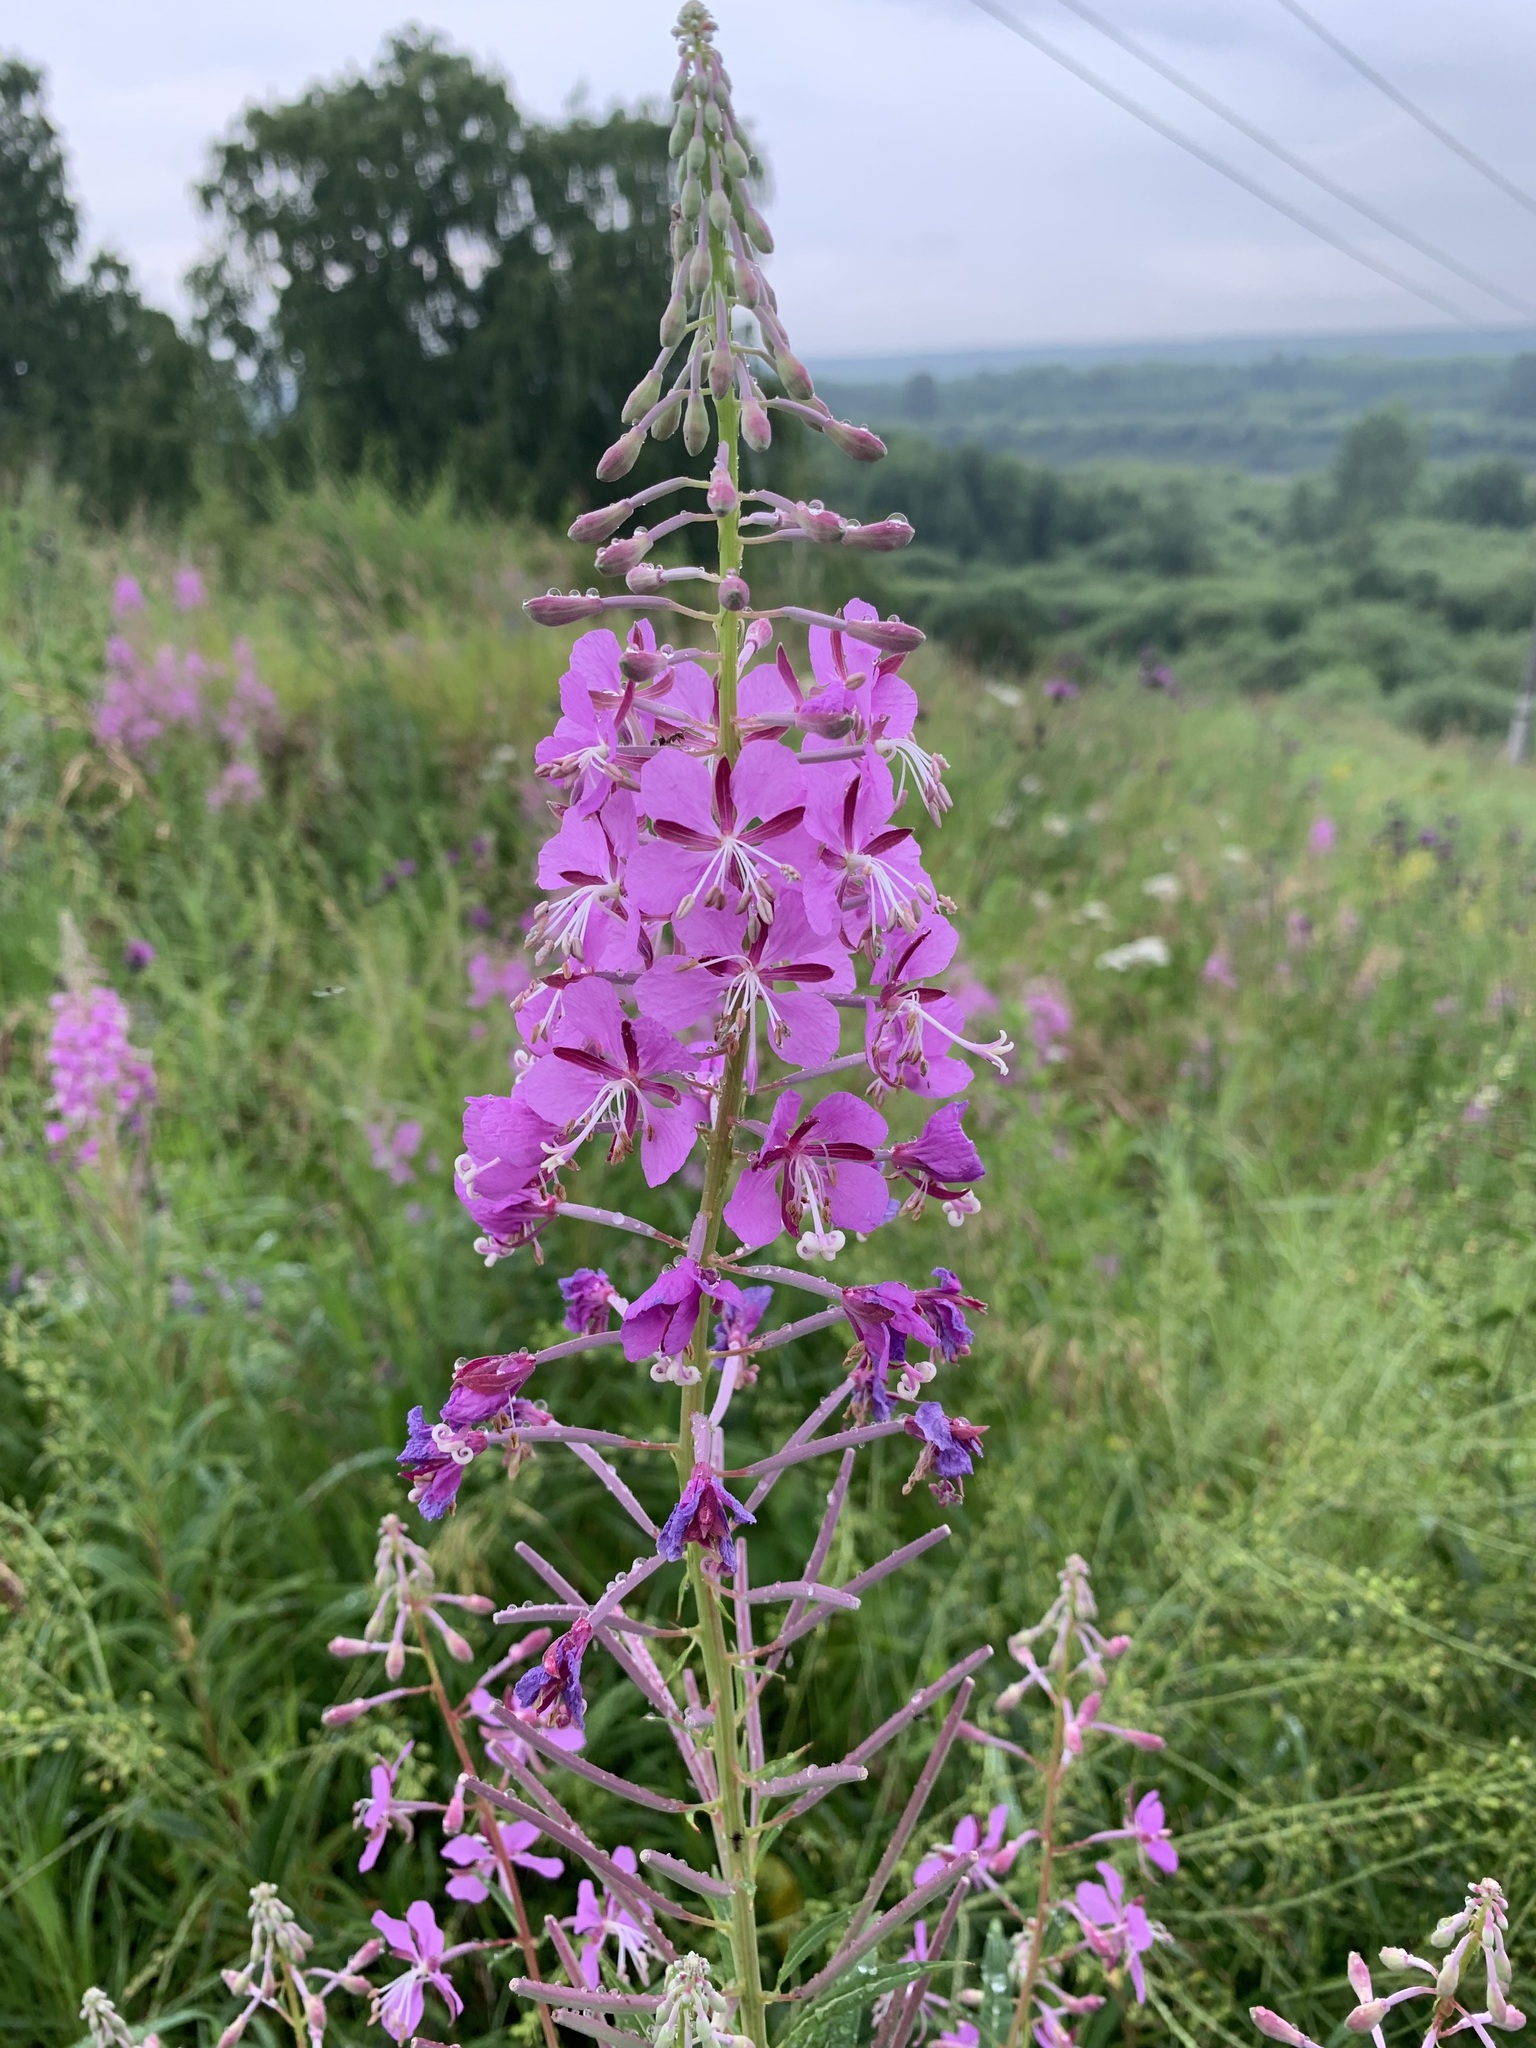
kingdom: Plantae
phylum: Tracheophyta
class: Magnoliopsida
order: Myrtales
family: Onagraceae
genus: Chamaenerion
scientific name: Chamaenerion angustifolium
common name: Fireweed
